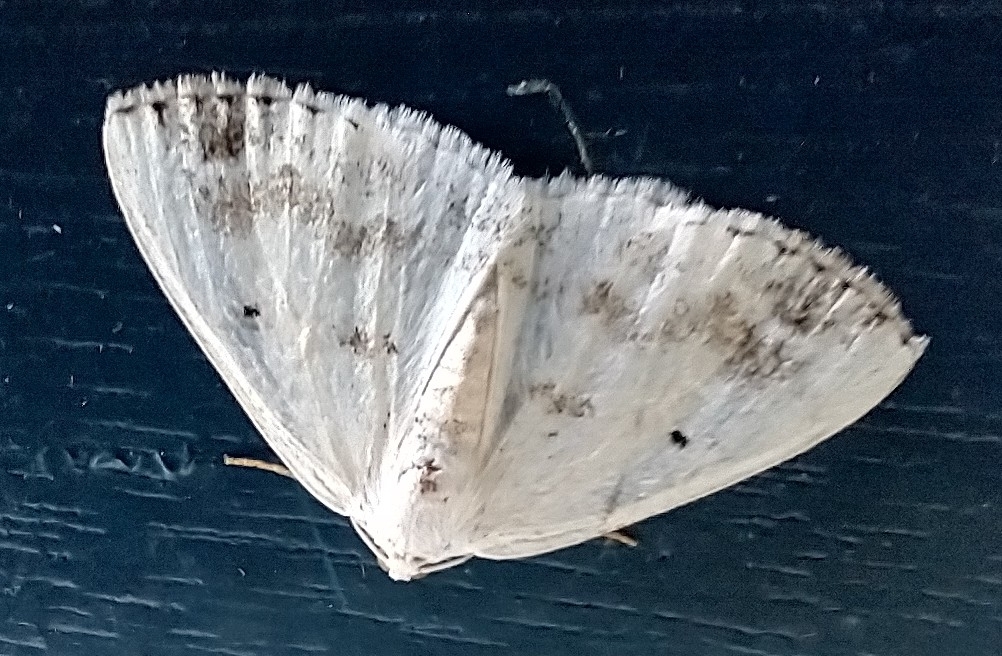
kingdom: Animalia
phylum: Arthropoda
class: Insecta
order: Lepidoptera
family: Geometridae
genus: Lomographa
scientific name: Lomographa temerata
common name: Clouded silver
